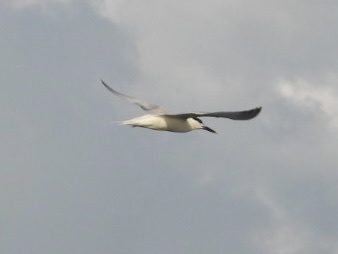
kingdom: Animalia
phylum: Chordata
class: Aves
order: Charadriiformes
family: Laridae
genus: Thalasseus
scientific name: Thalasseus sandvicensis
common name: Sandwich tern
